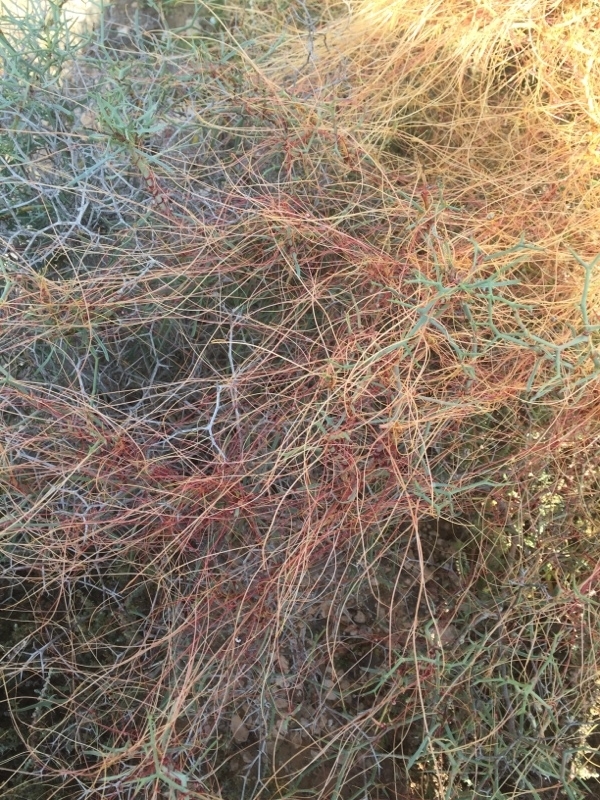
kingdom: Plantae
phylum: Tracheophyta
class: Magnoliopsida
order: Solanales
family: Convolvulaceae
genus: Cuscuta
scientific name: Cuscuta approximata
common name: Alfalfa dodder
